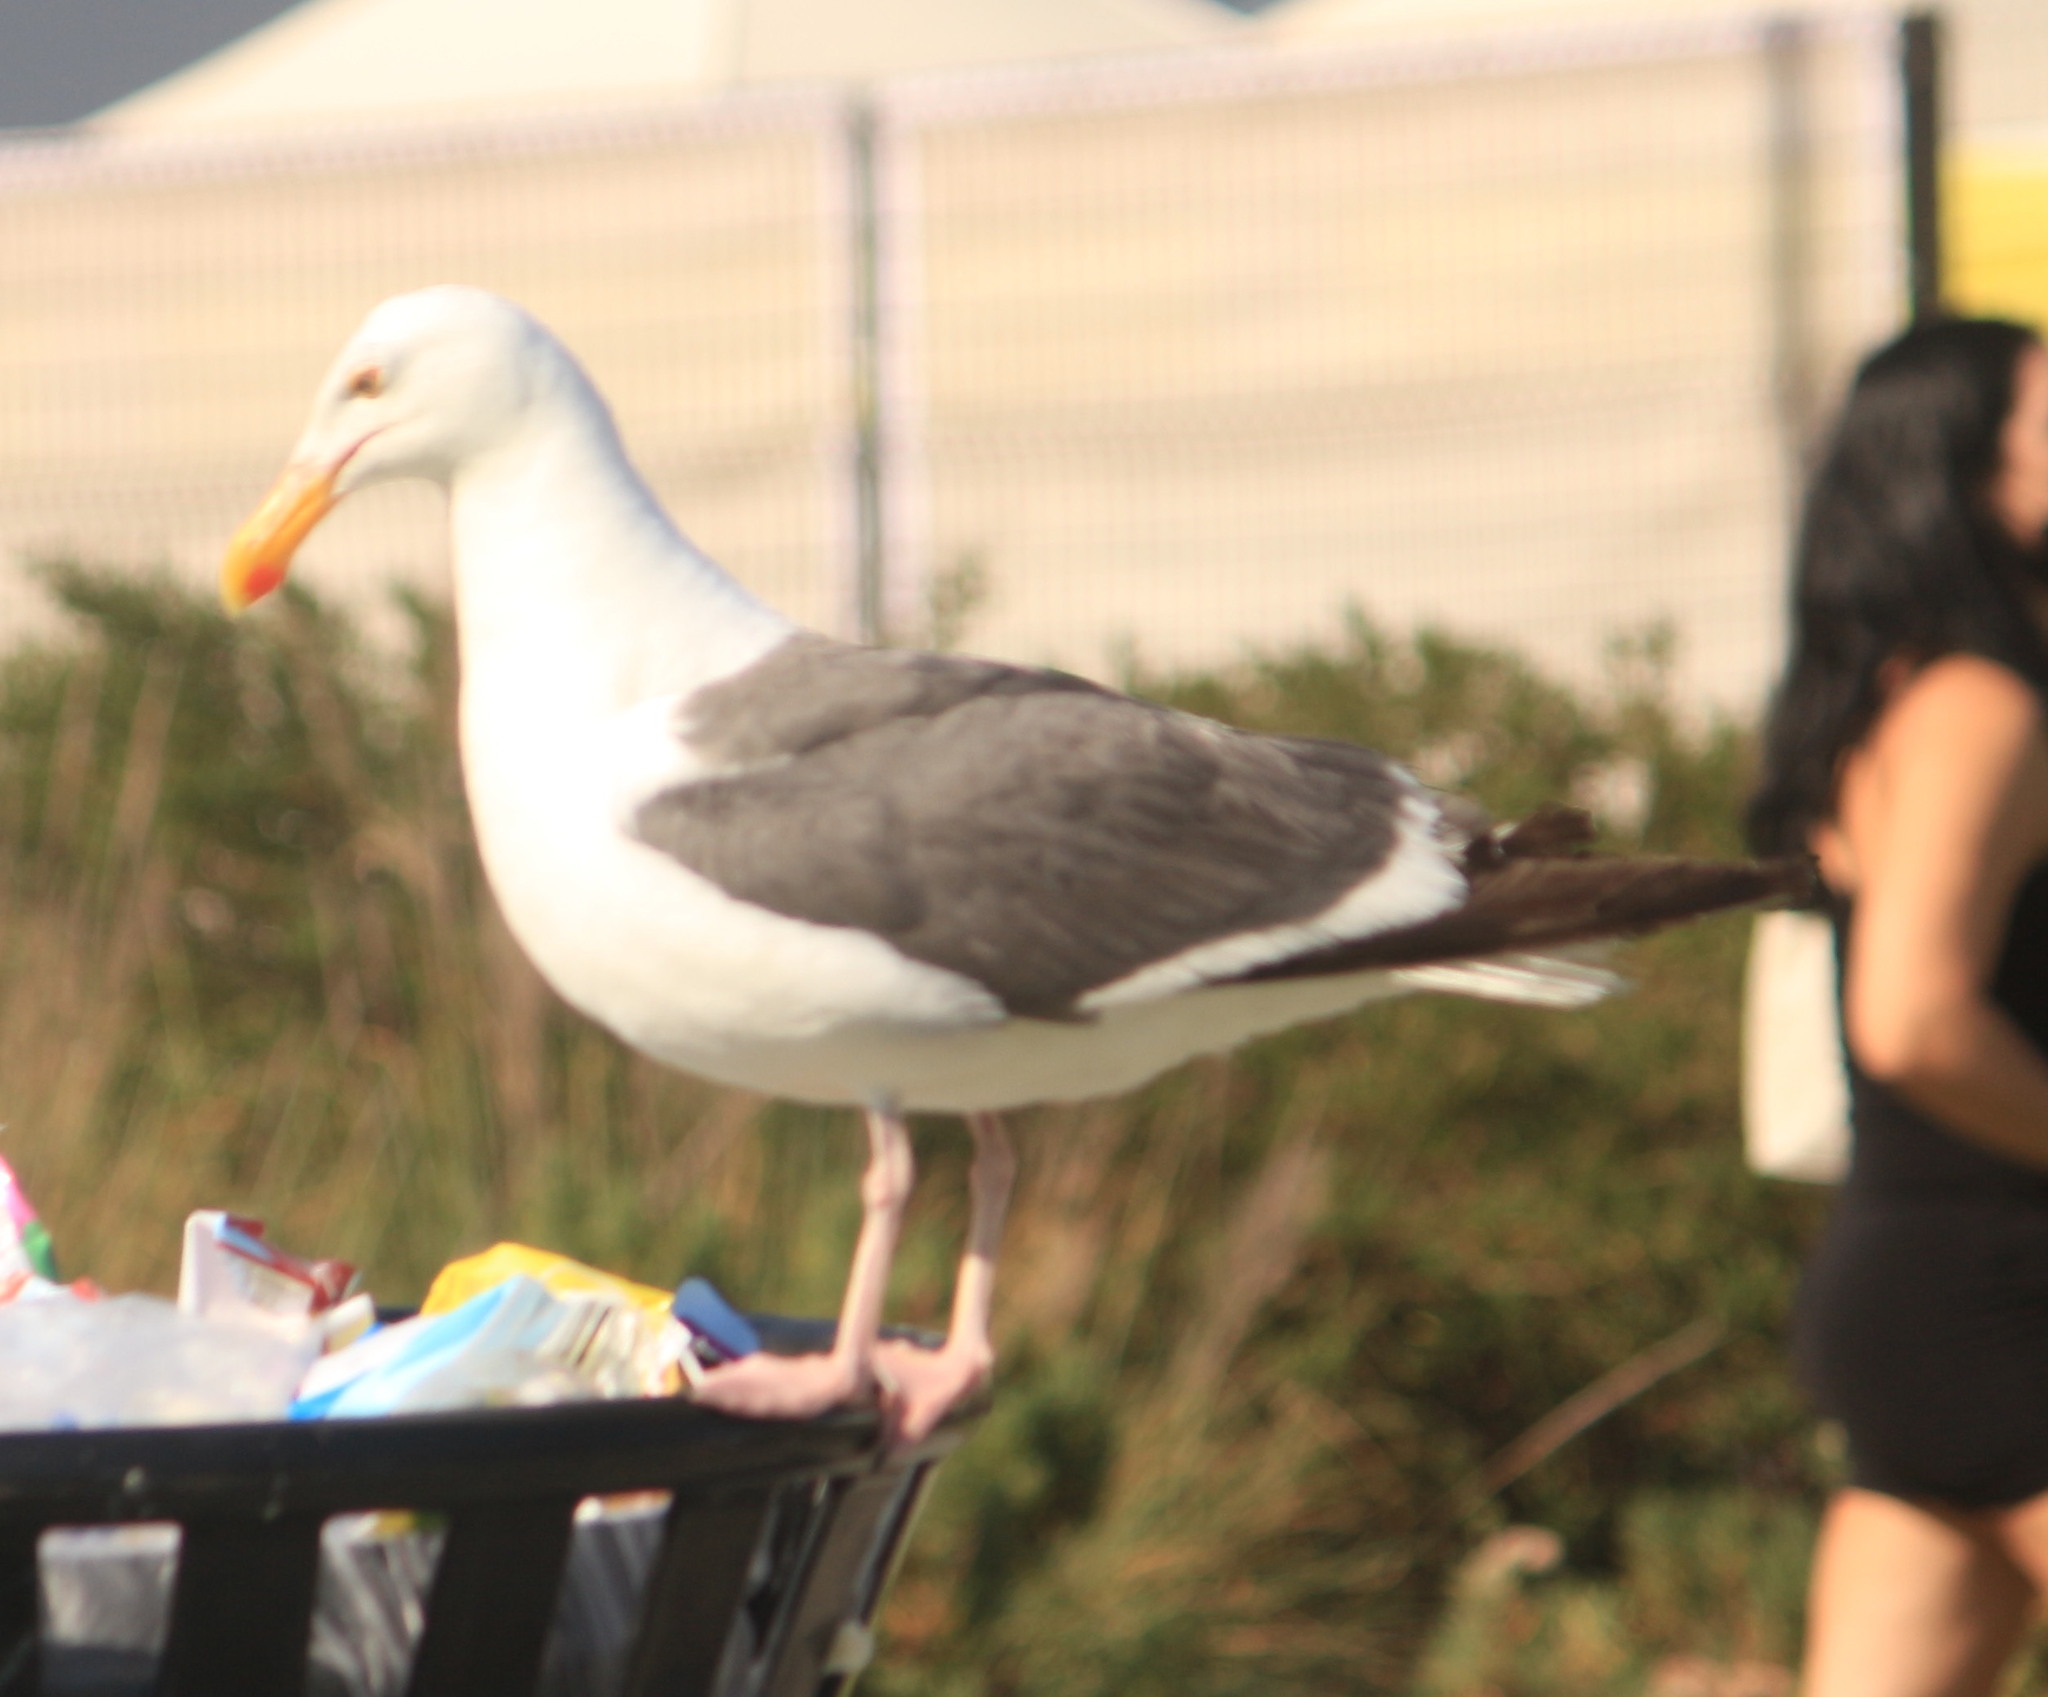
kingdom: Animalia
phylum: Chordata
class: Aves
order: Charadriiformes
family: Laridae
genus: Larus
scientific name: Larus occidentalis
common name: Western gull
